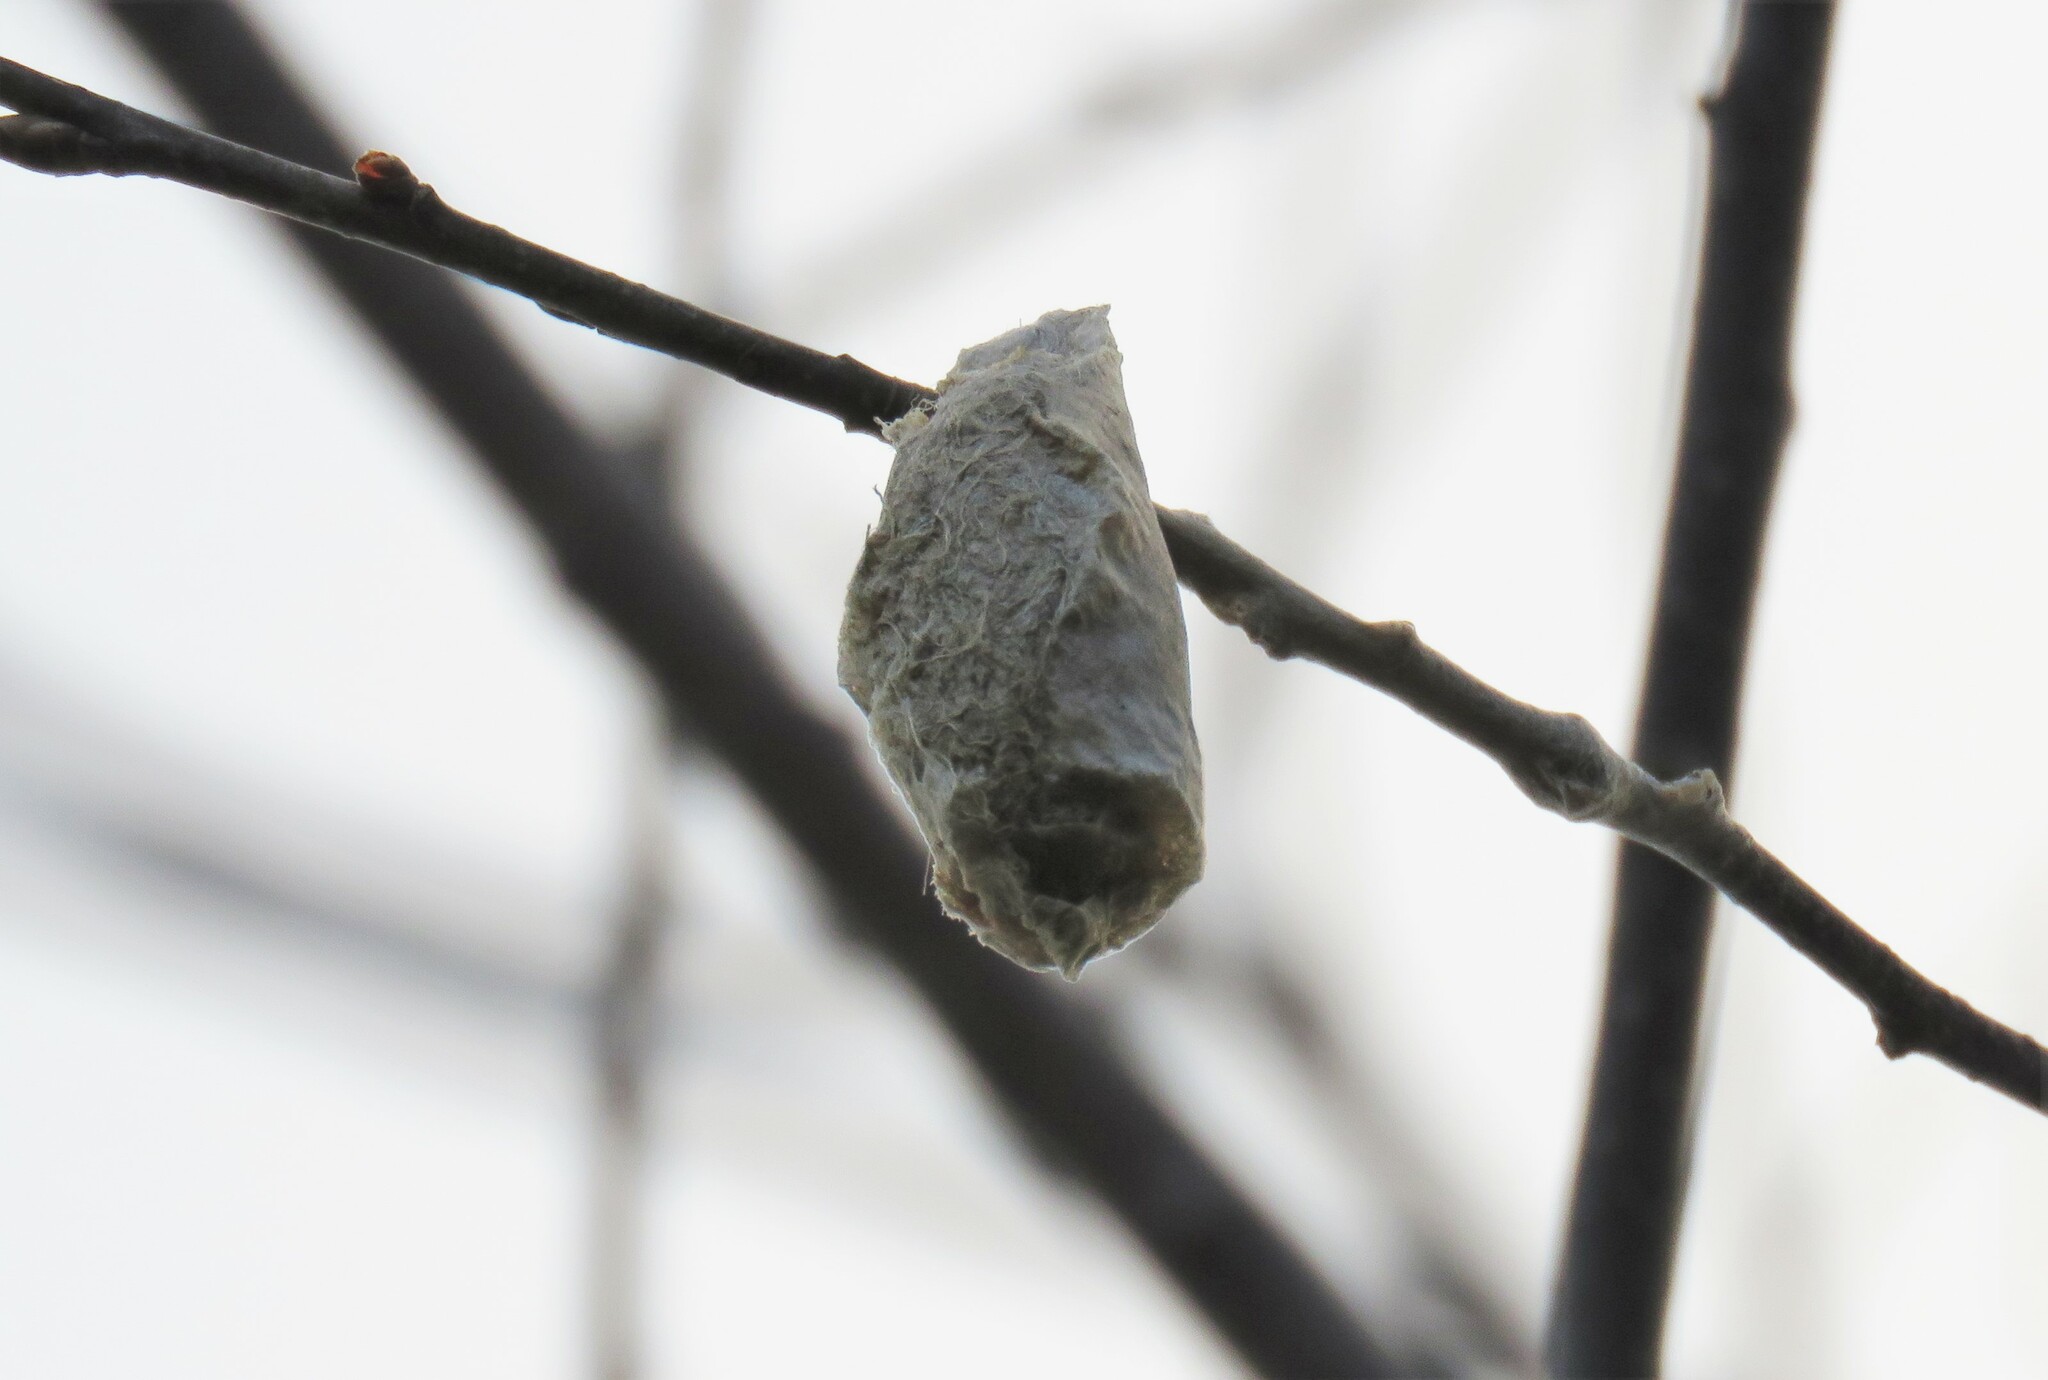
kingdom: Animalia
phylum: Arthropoda
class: Insecta
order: Lepidoptera
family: Saturniidae
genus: Callosamia
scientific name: Callosamia promethea
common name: Promethea silkmoth
